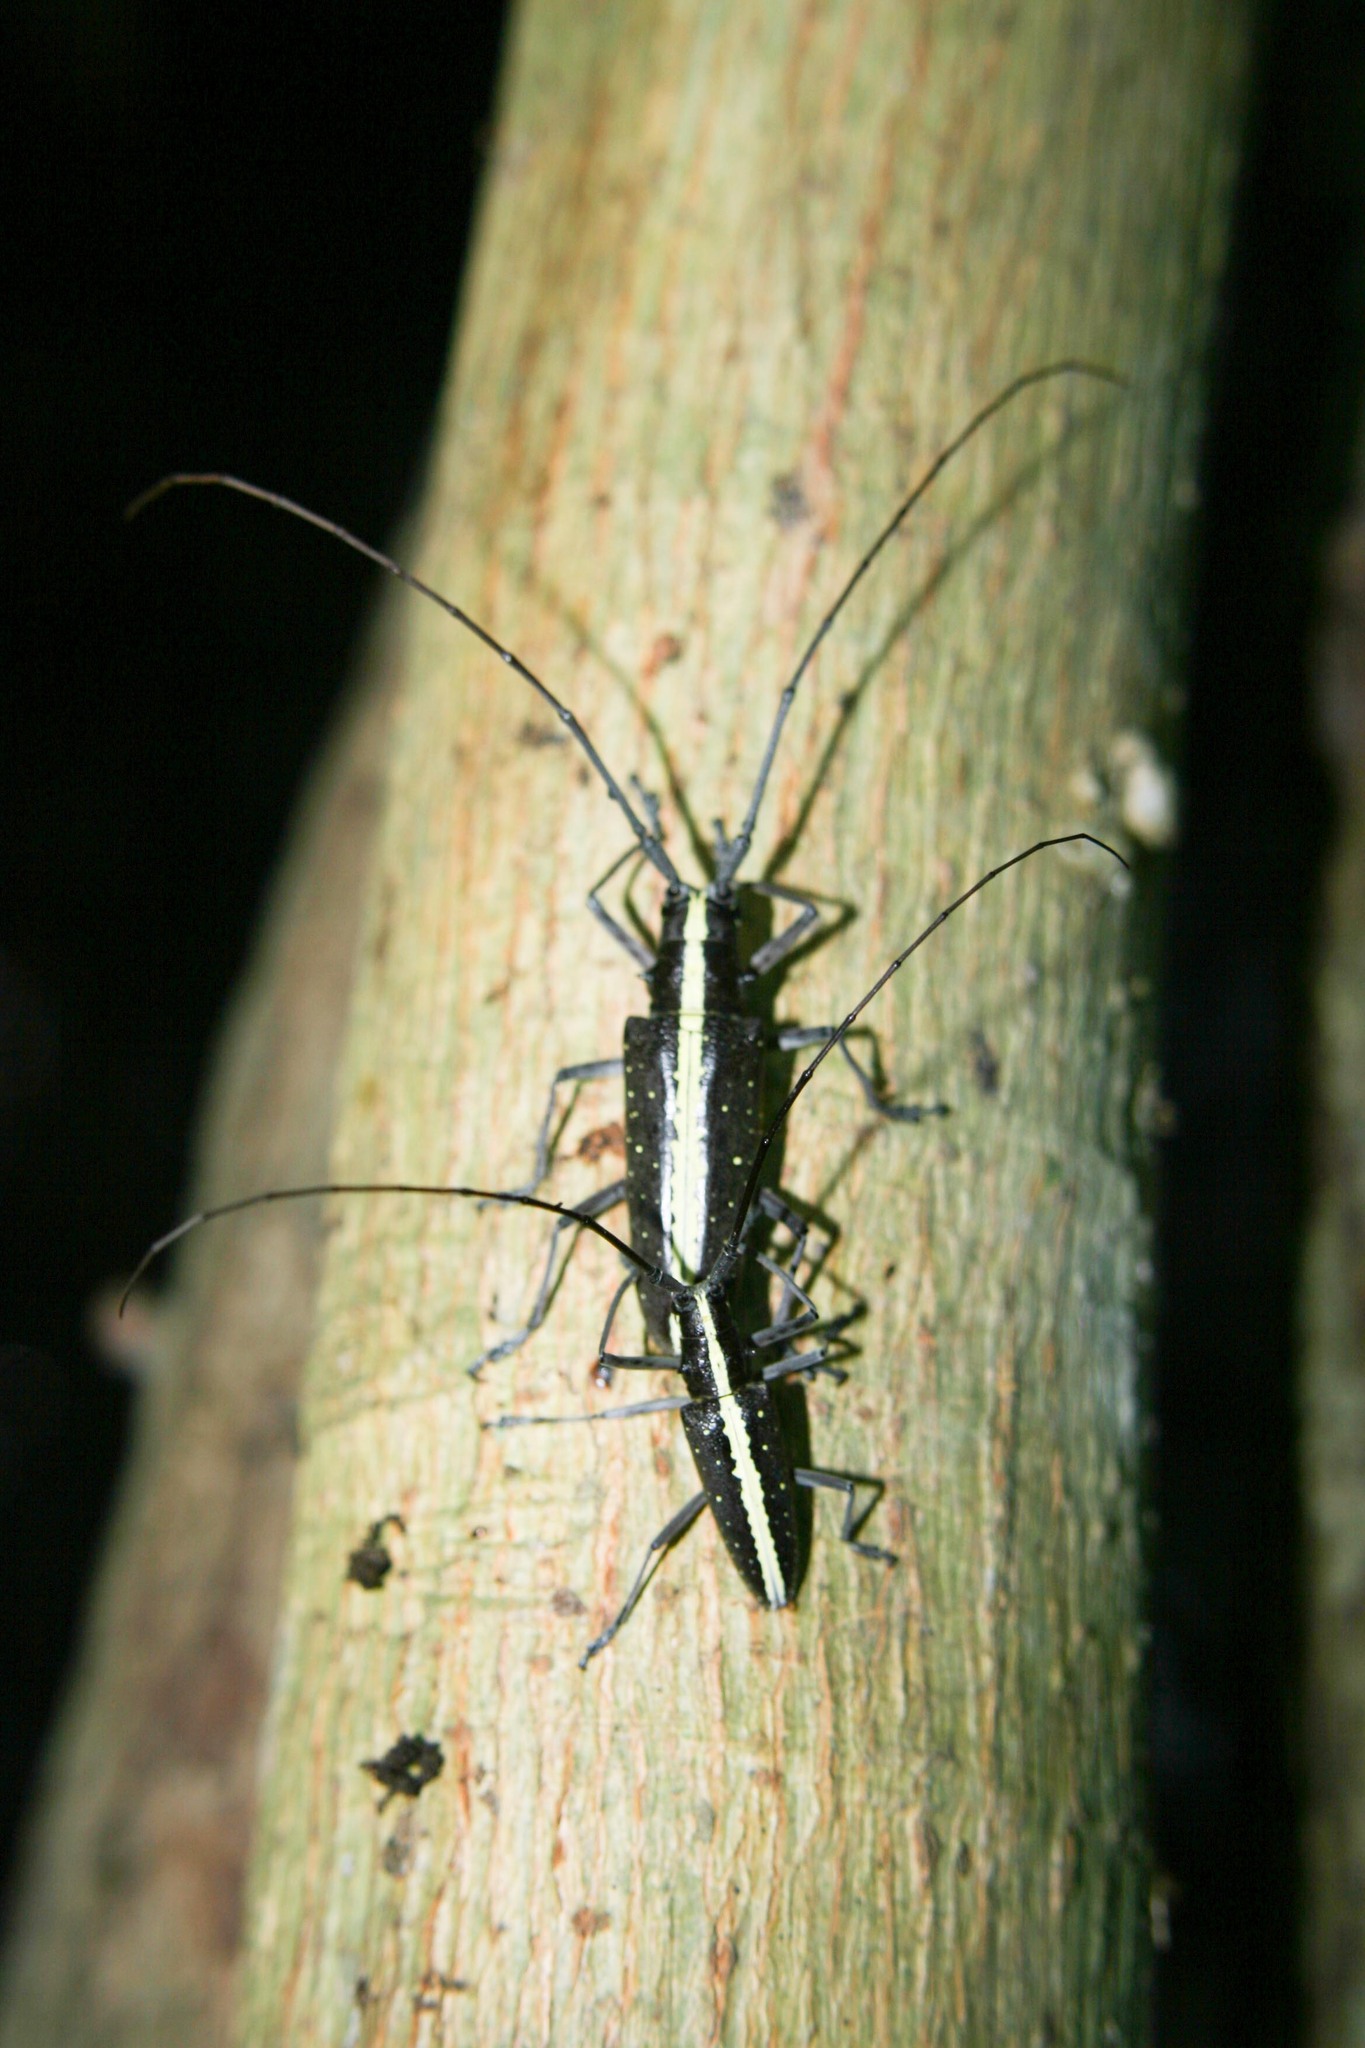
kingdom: Animalia
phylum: Arthropoda
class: Insecta
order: Coleoptera
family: Cerambycidae
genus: Taeniotes
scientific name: Taeniotes scalatus
